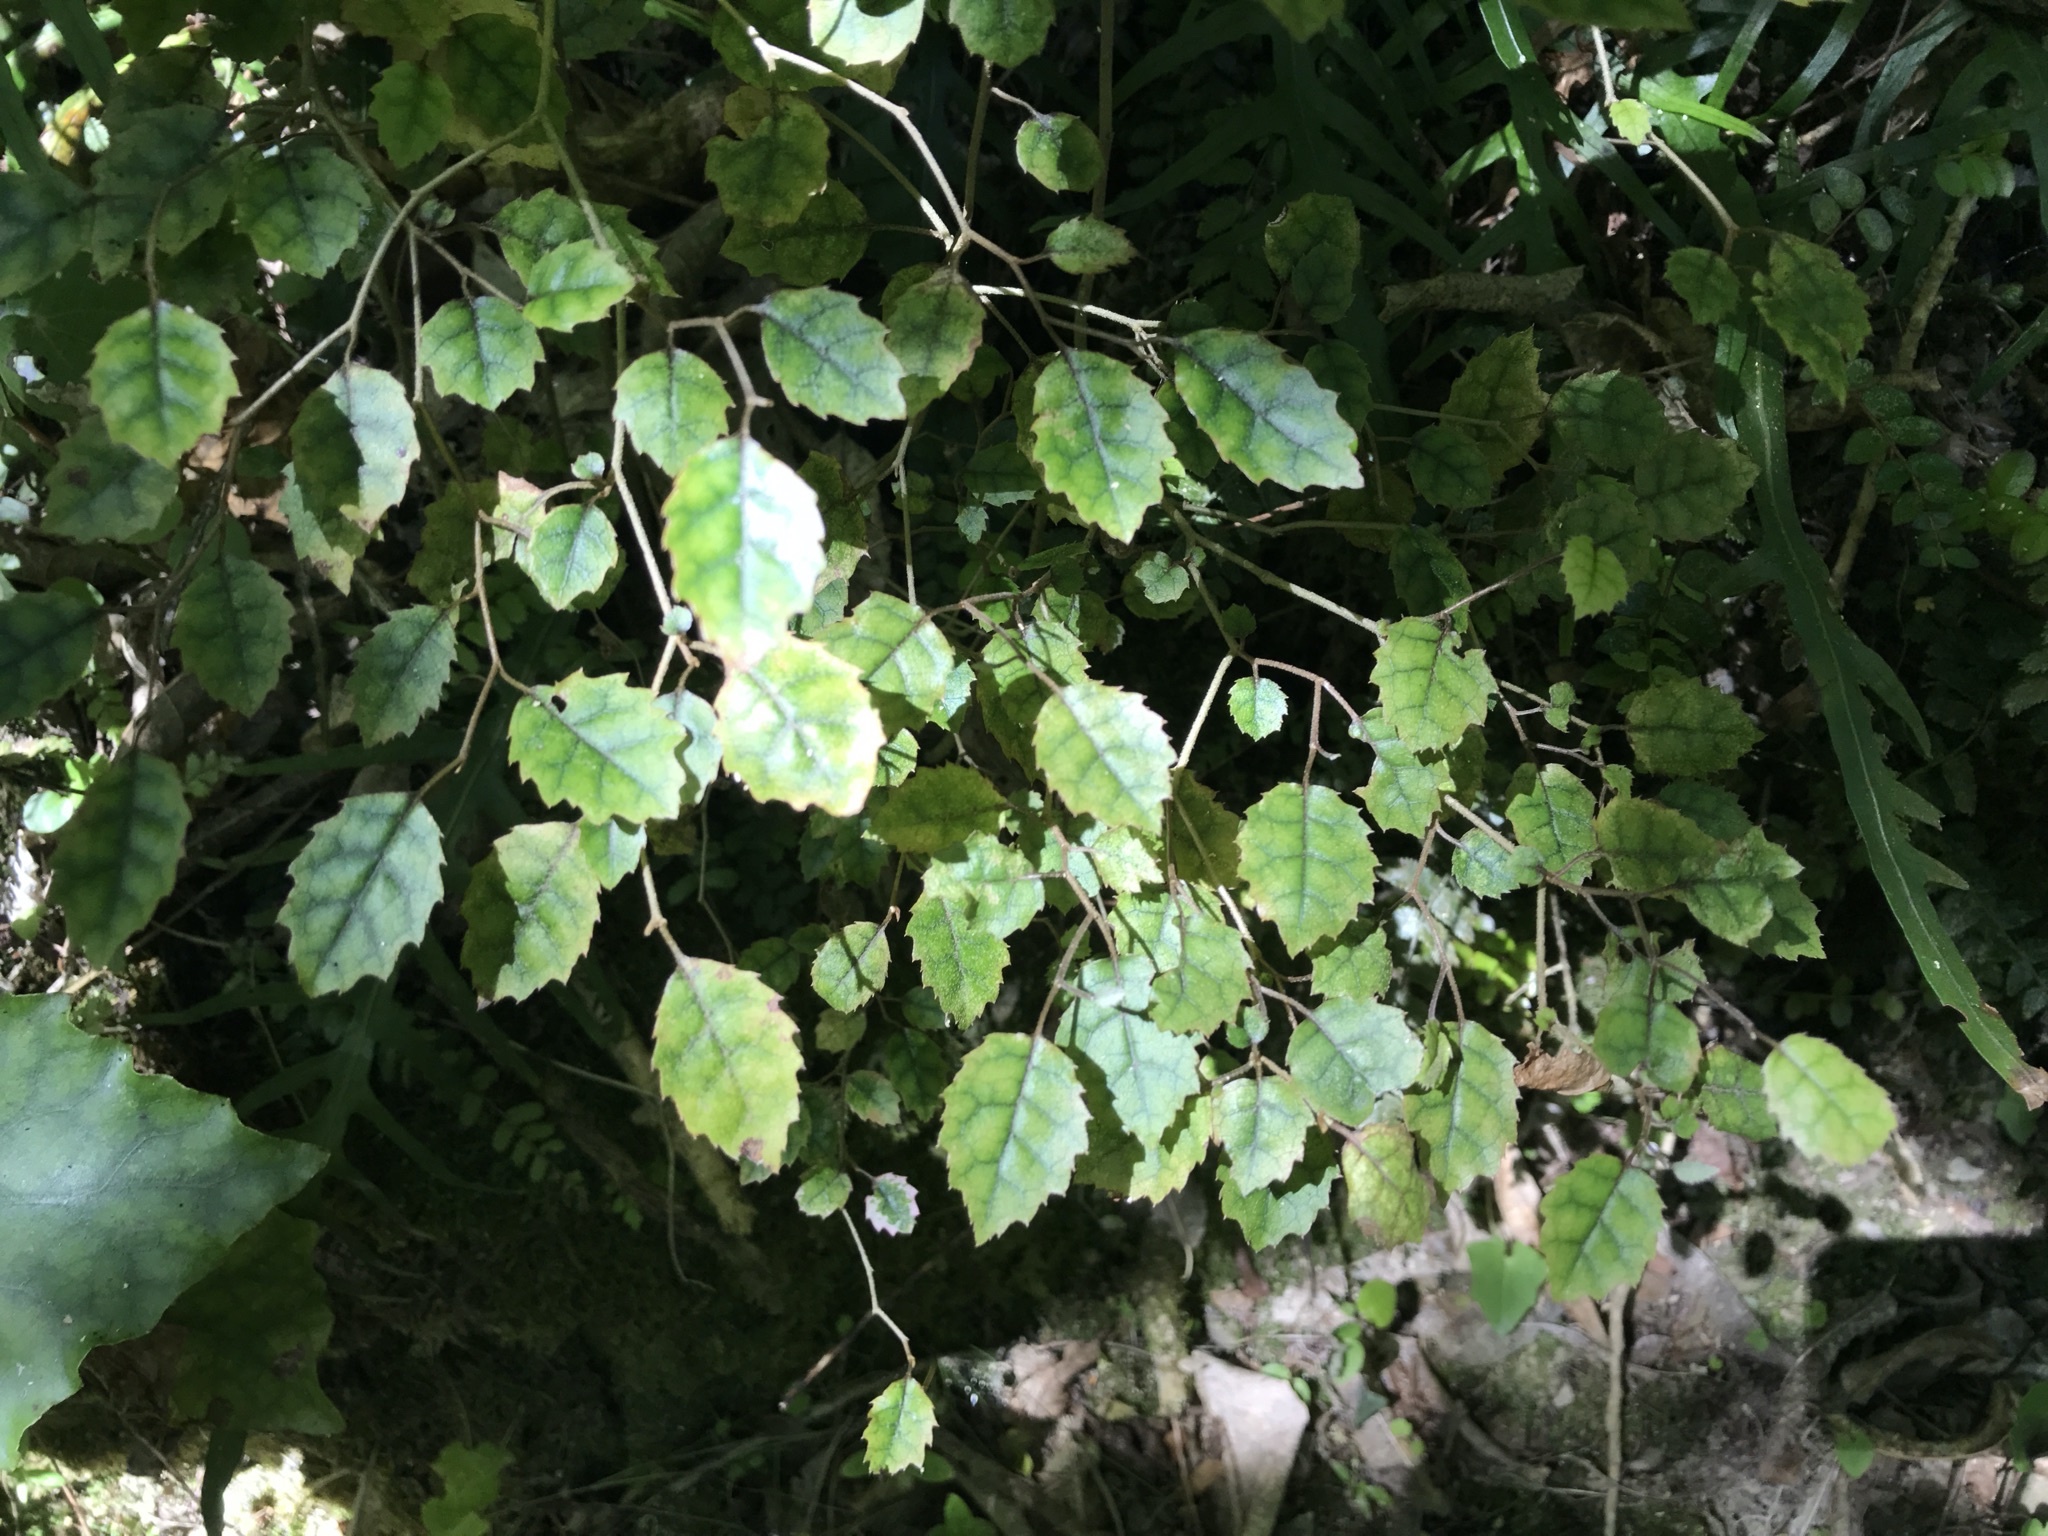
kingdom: Plantae
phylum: Tracheophyta
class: Magnoliopsida
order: Asterales
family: Rousseaceae
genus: Carpodetus
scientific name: Carpodetus serratus
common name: White mapau
